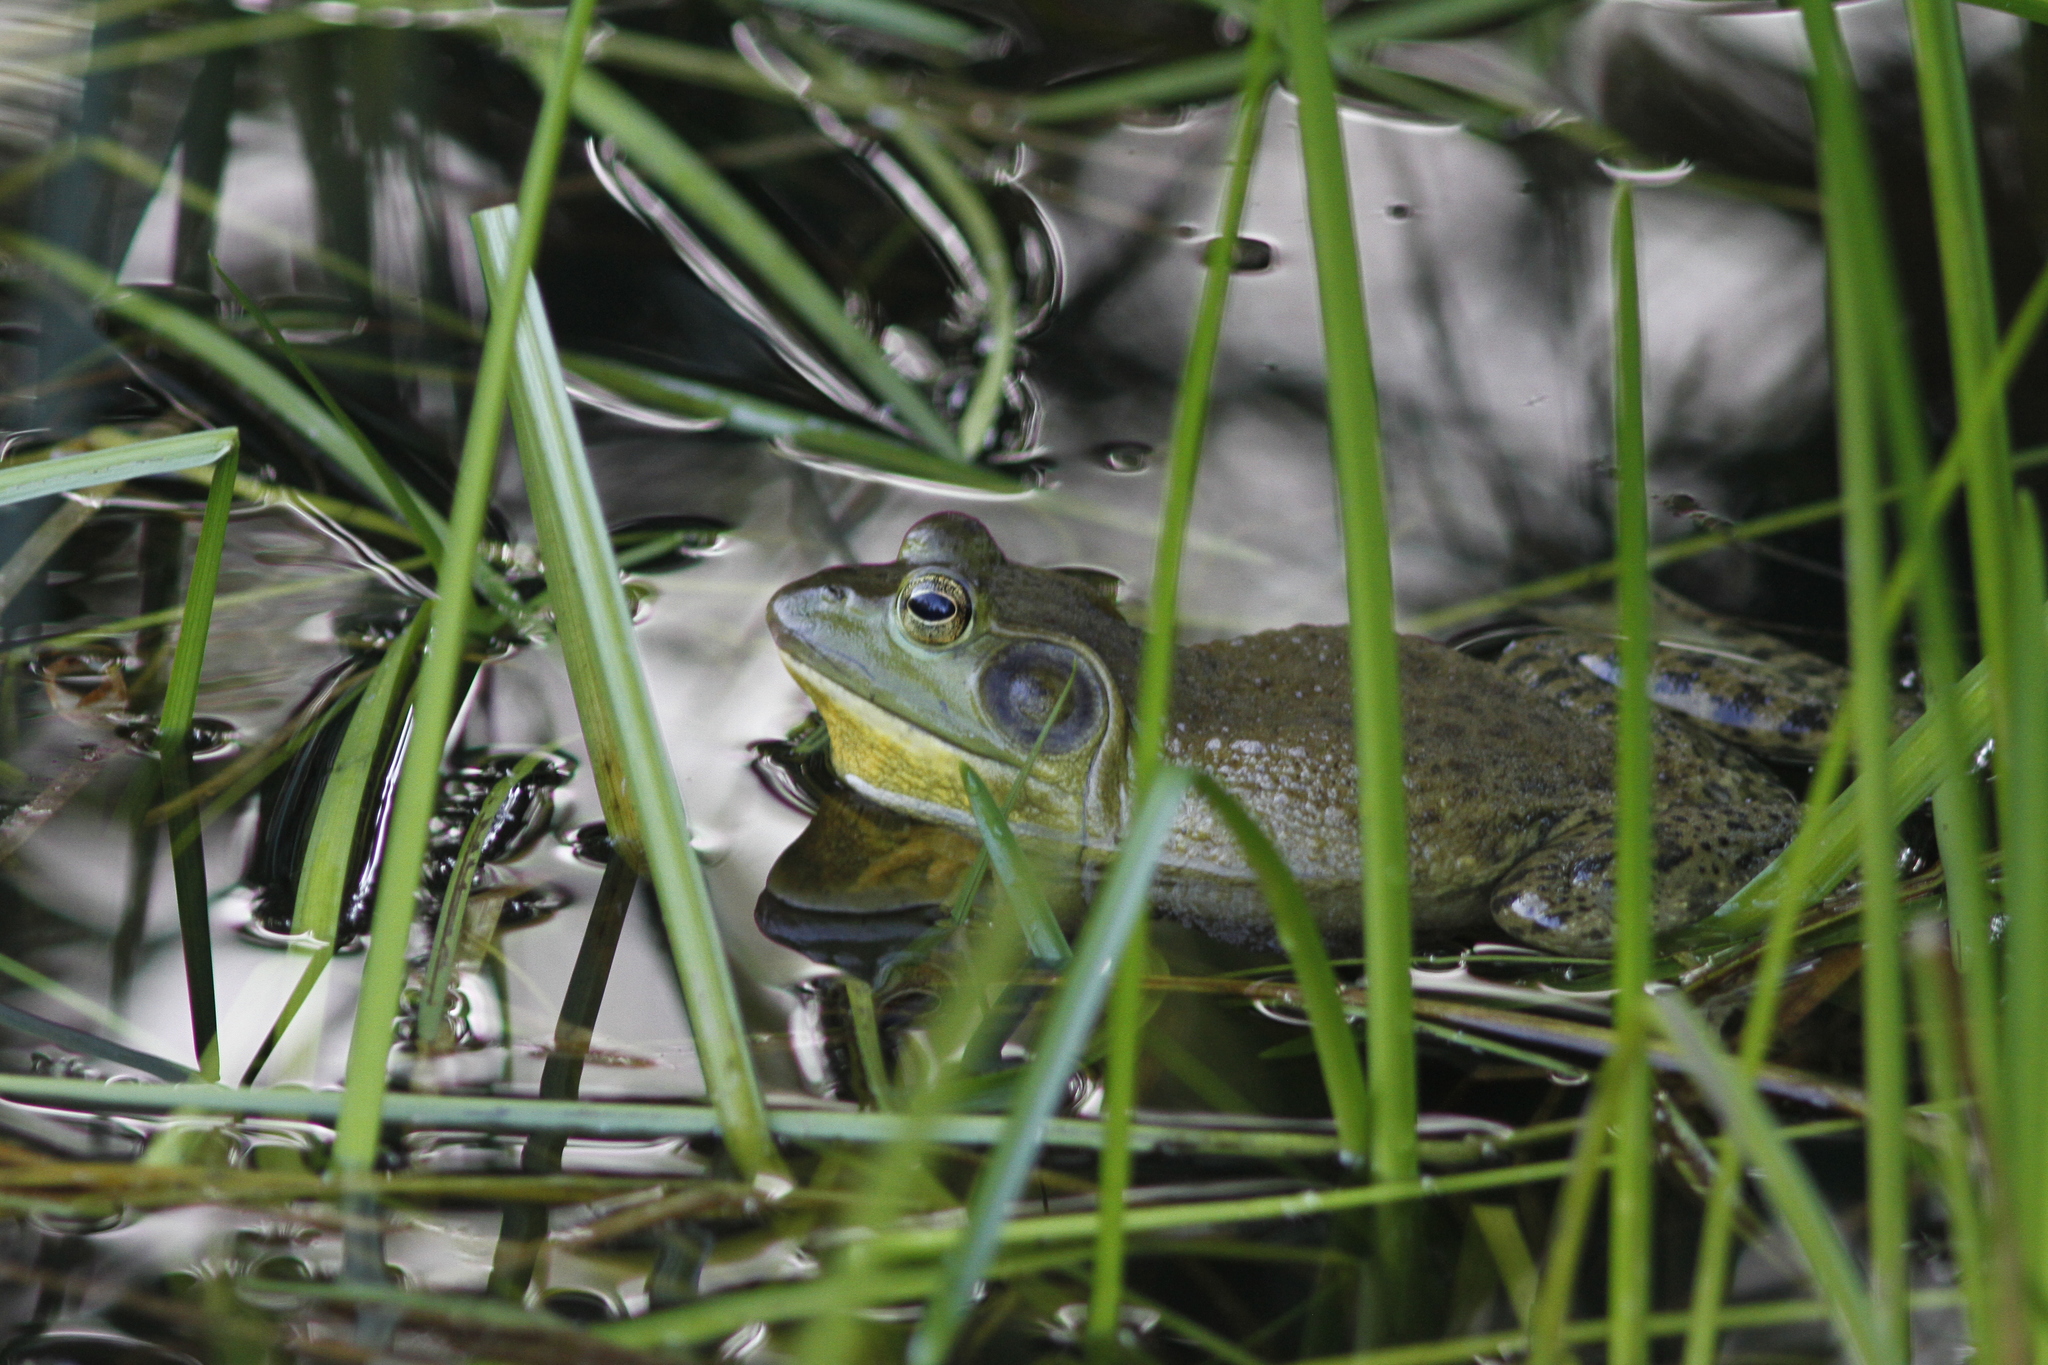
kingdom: Animalia
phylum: Chordata
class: Amphibia
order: Anura
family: Ranidae
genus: Lithobates
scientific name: Lithobates catesbeianus
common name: American bullfrog
